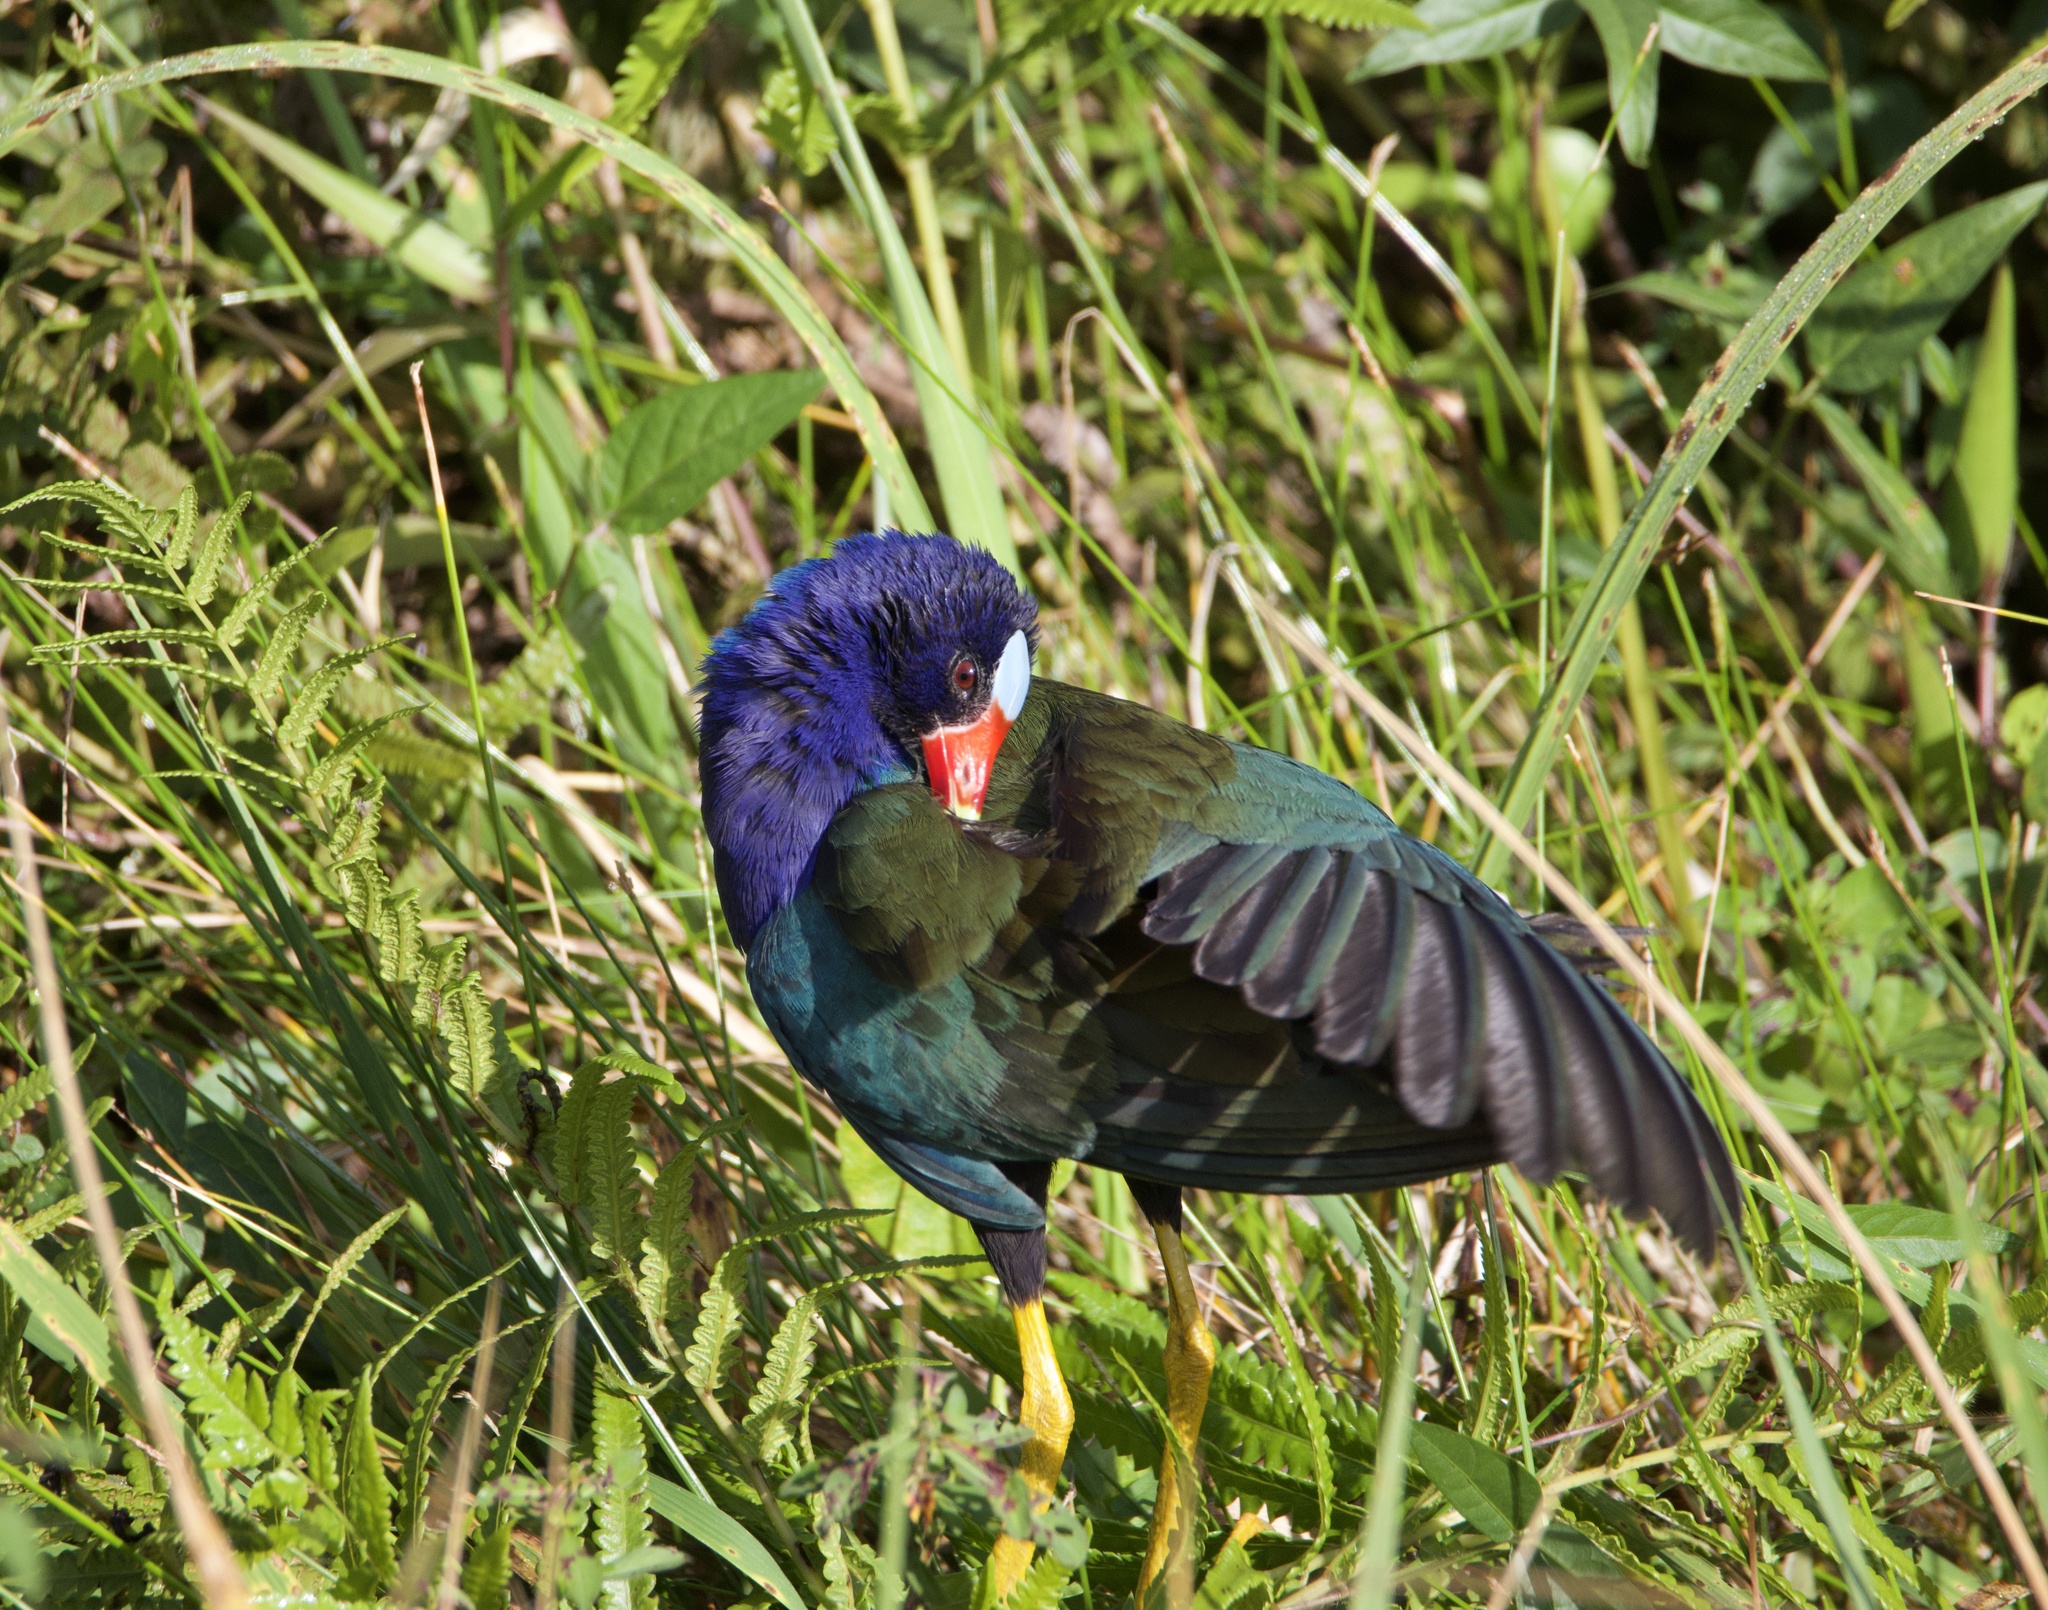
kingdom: Animalia
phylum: Chordata
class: Aves
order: Gruiformes
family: Rallidae
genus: Porphyrio
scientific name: Porphyrio martinica
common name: Purple gallinule
